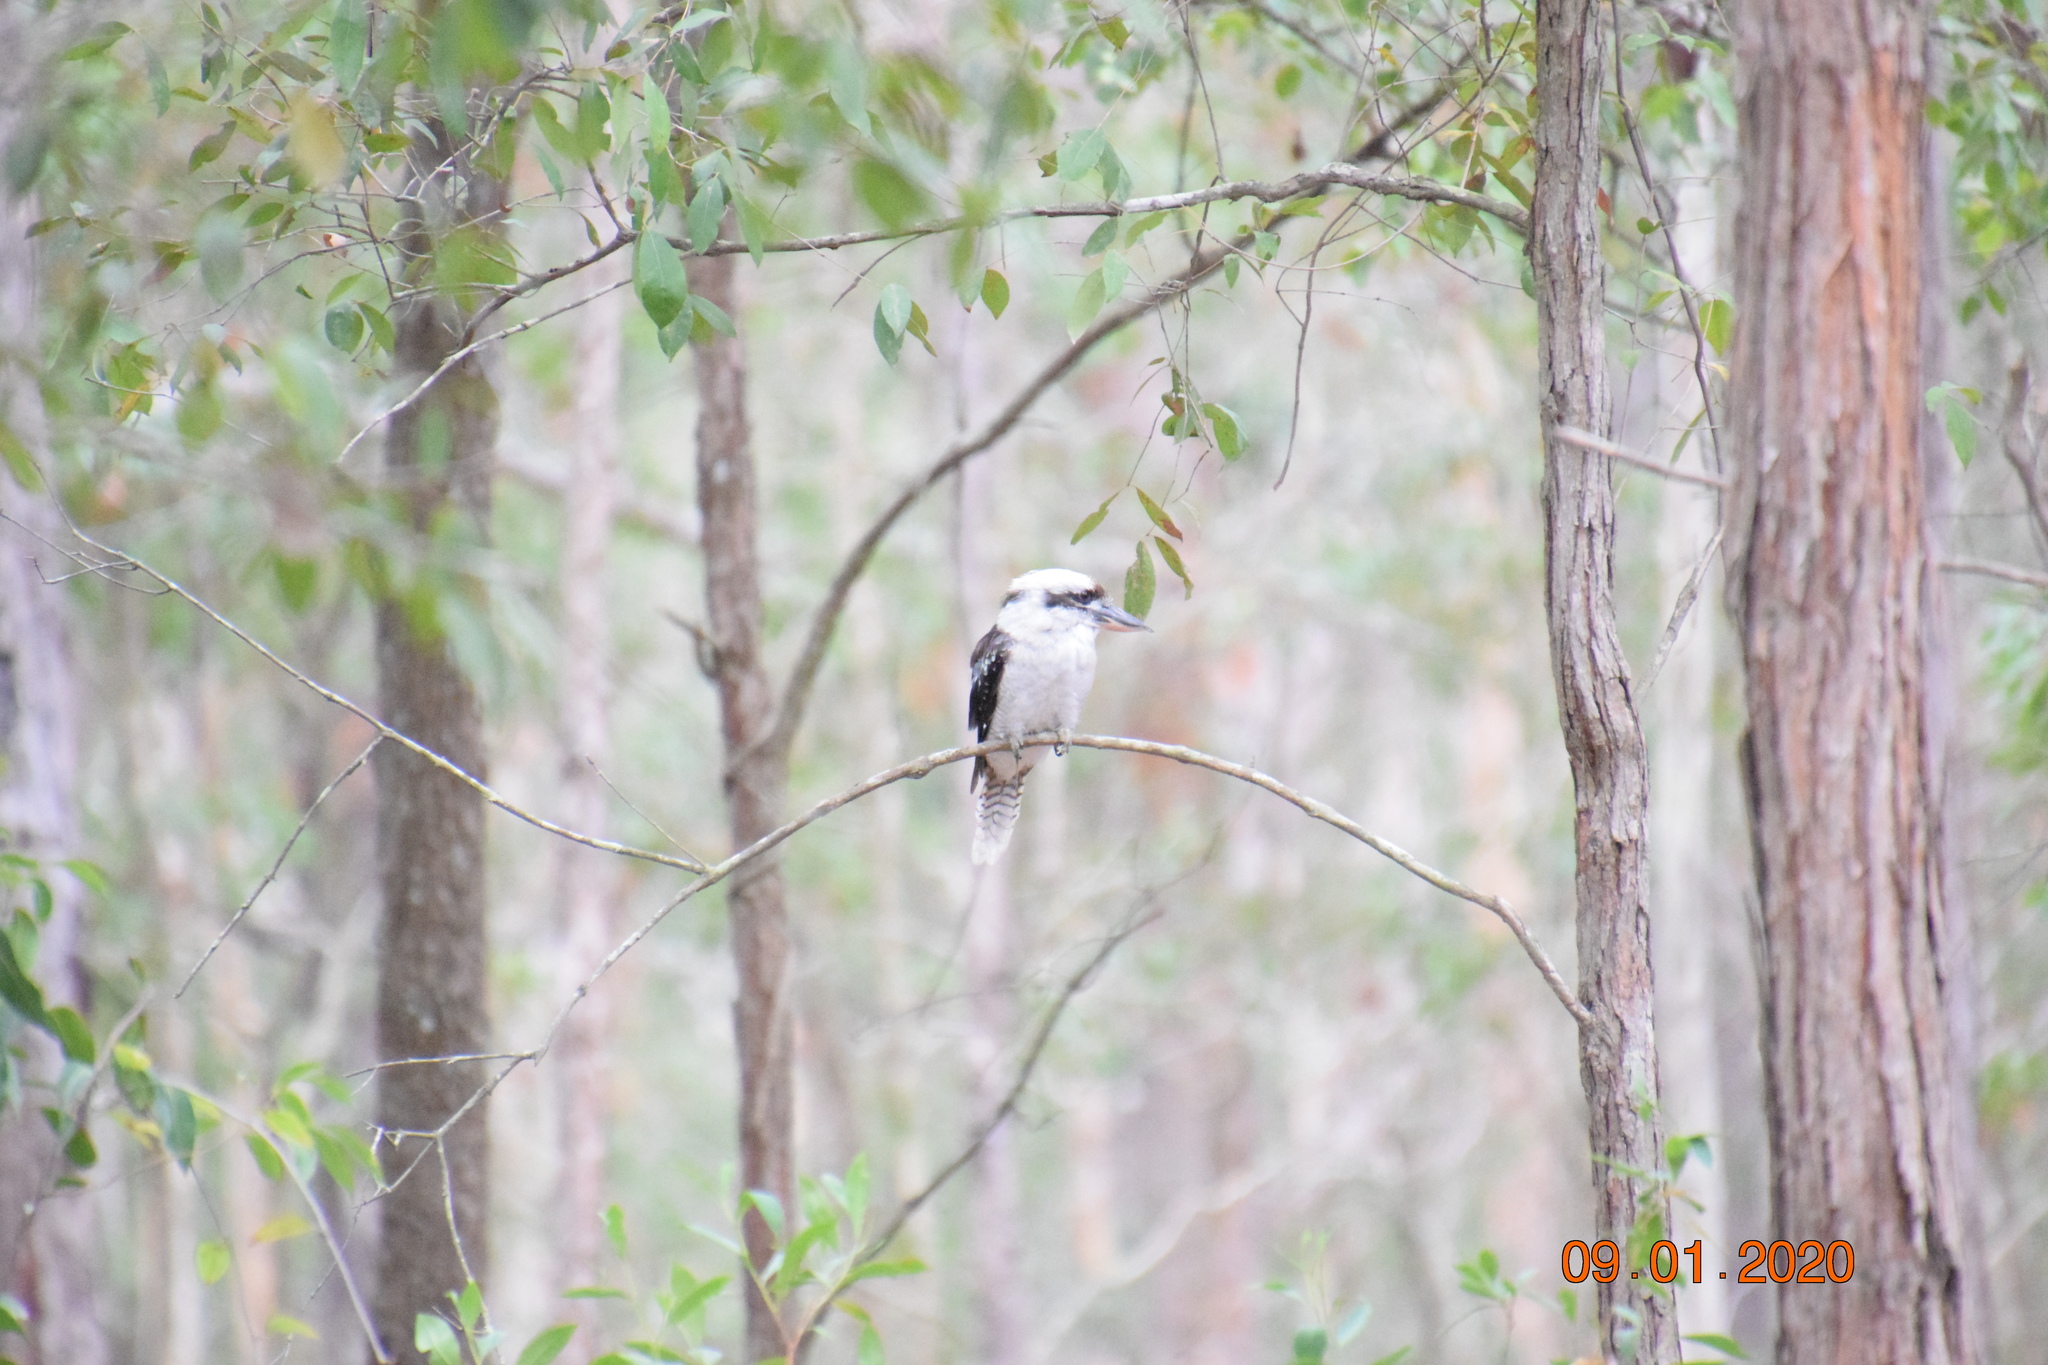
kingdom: Animalia
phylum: Chordata
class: Aves
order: Coraciiformes
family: Alcedinidae
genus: Dacelo
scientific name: Dacelo novaeguineae
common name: Laughing kookaburra
